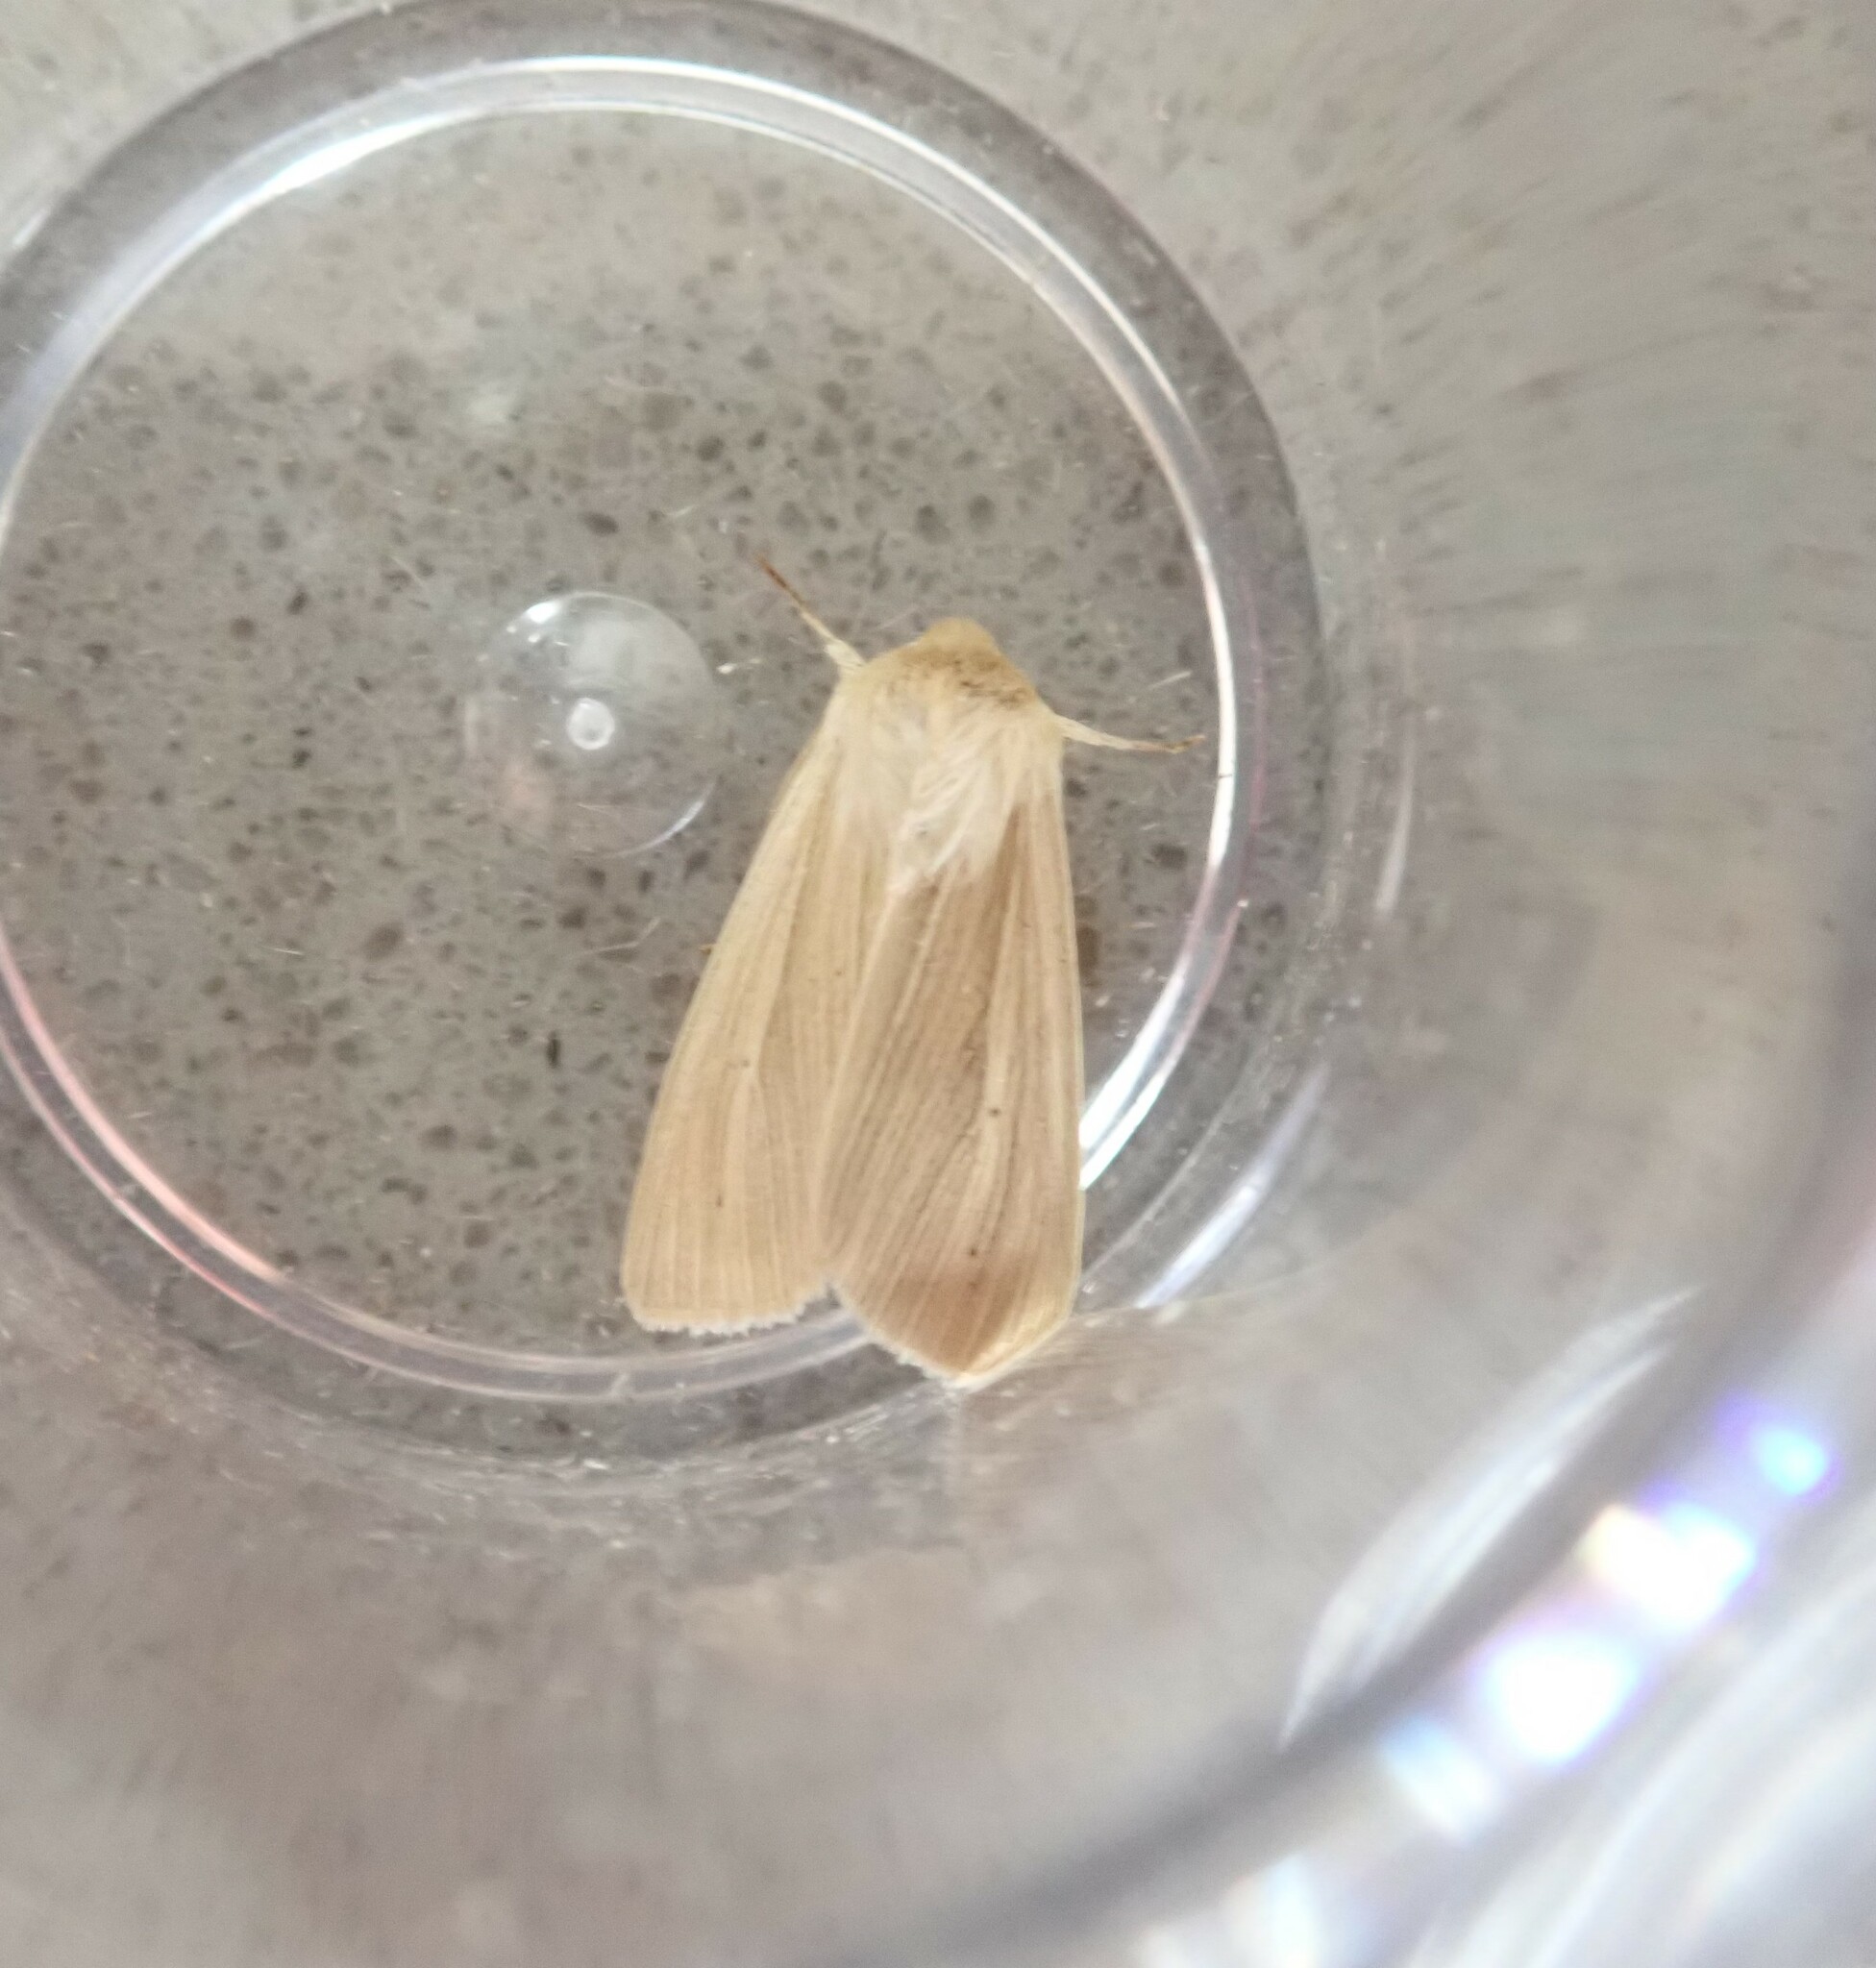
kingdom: Animalia
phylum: Arthropoda
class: Insecta
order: Lepidoptera
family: Noctuidae
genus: Mythimna
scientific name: Mythimna pallens
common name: Common wainscot
